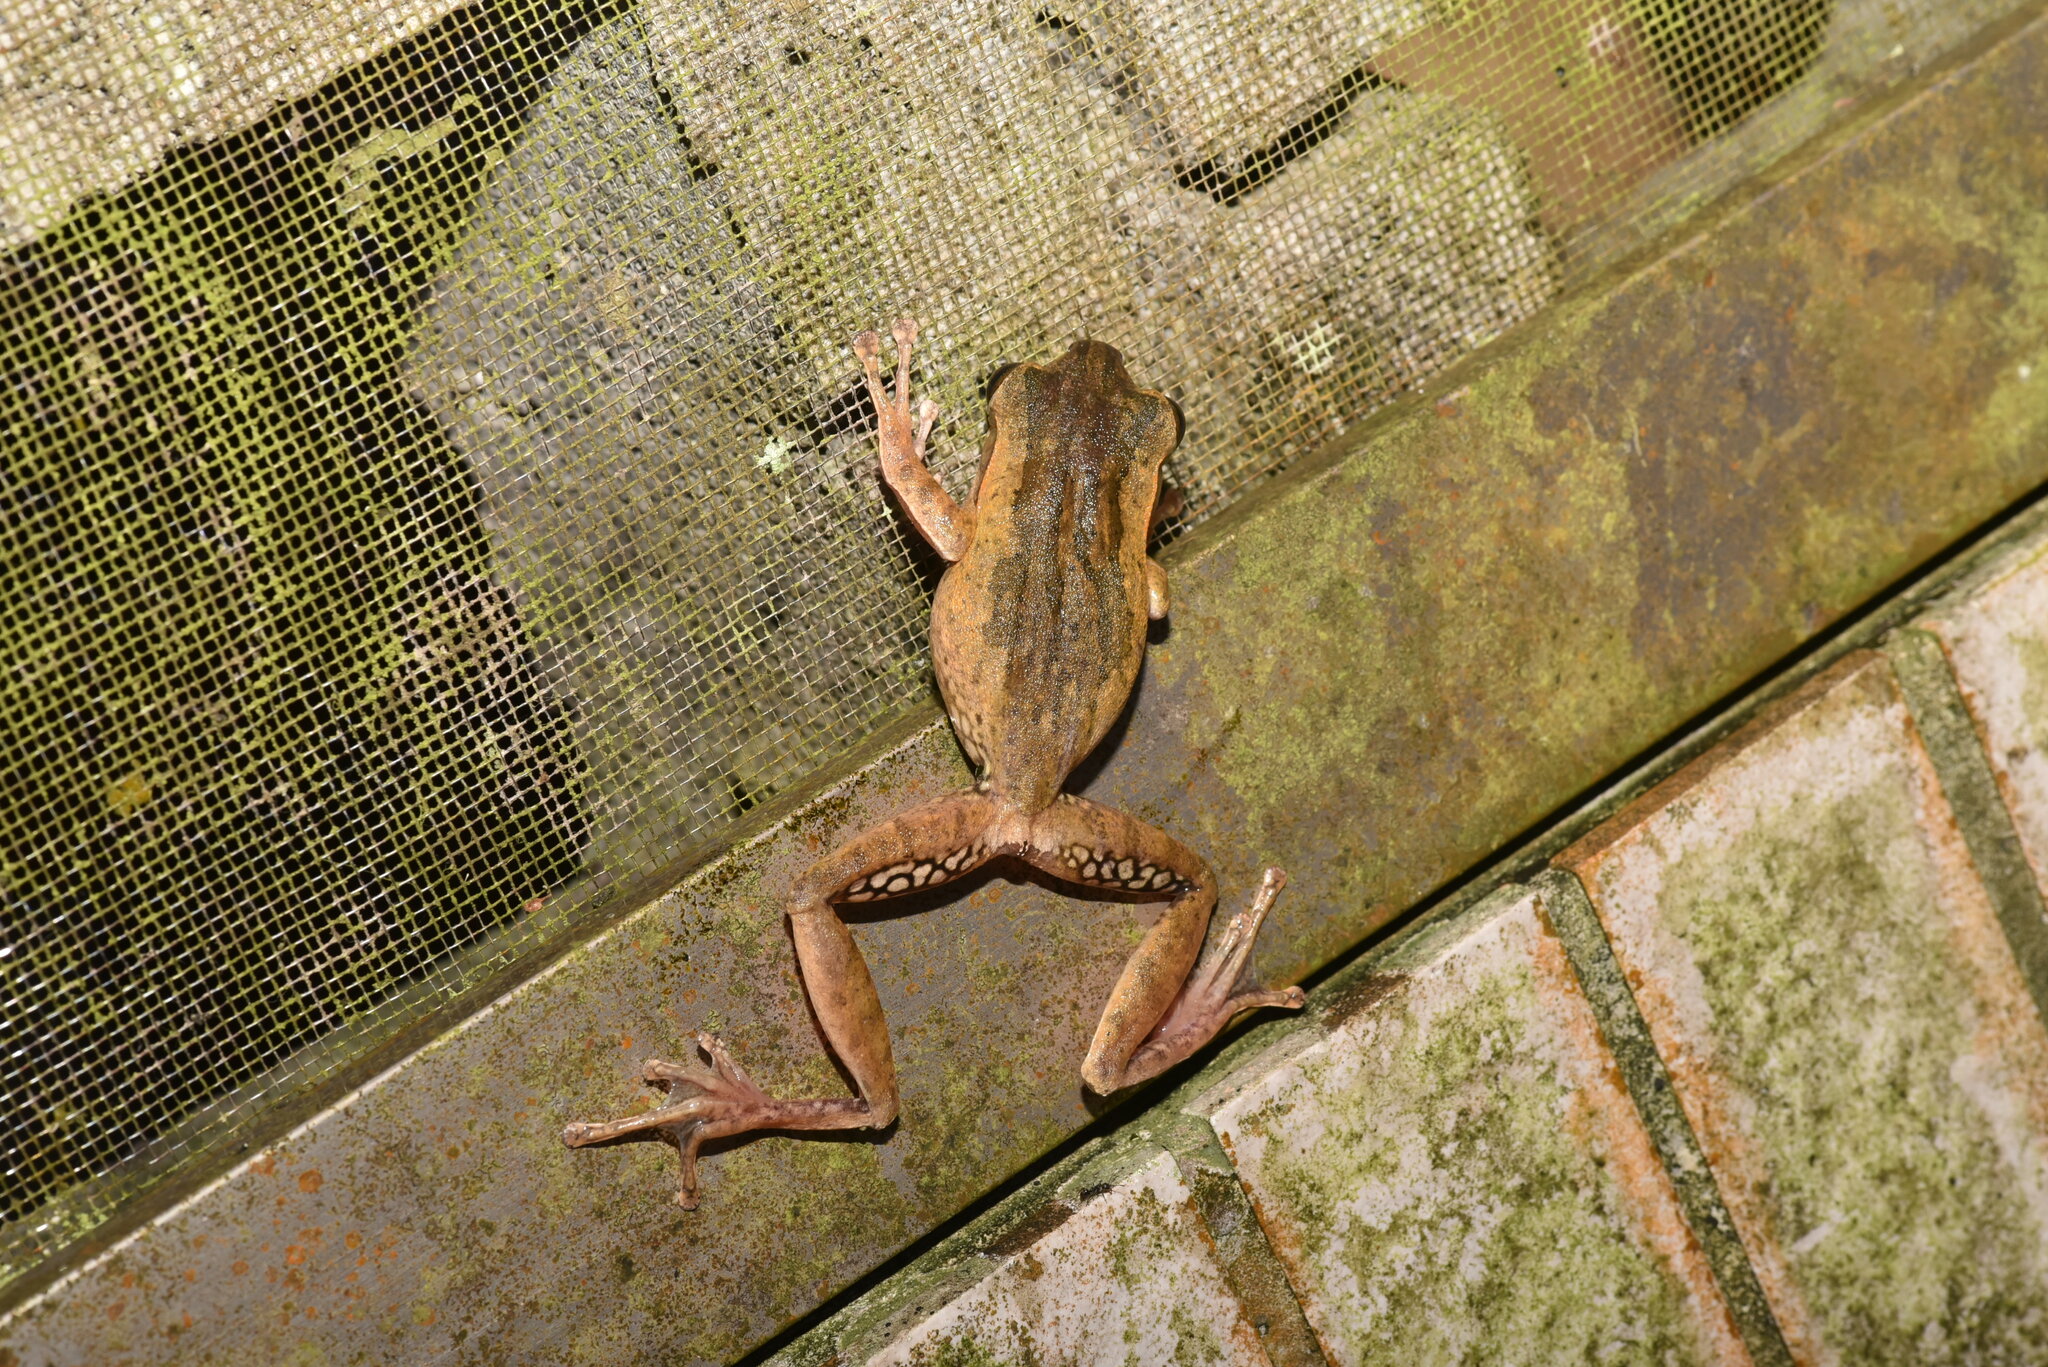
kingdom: Animalia
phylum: Chordata
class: Amphibia
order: Anura
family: Rhacophoridae
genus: Polypedates
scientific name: Polypedates braueri
